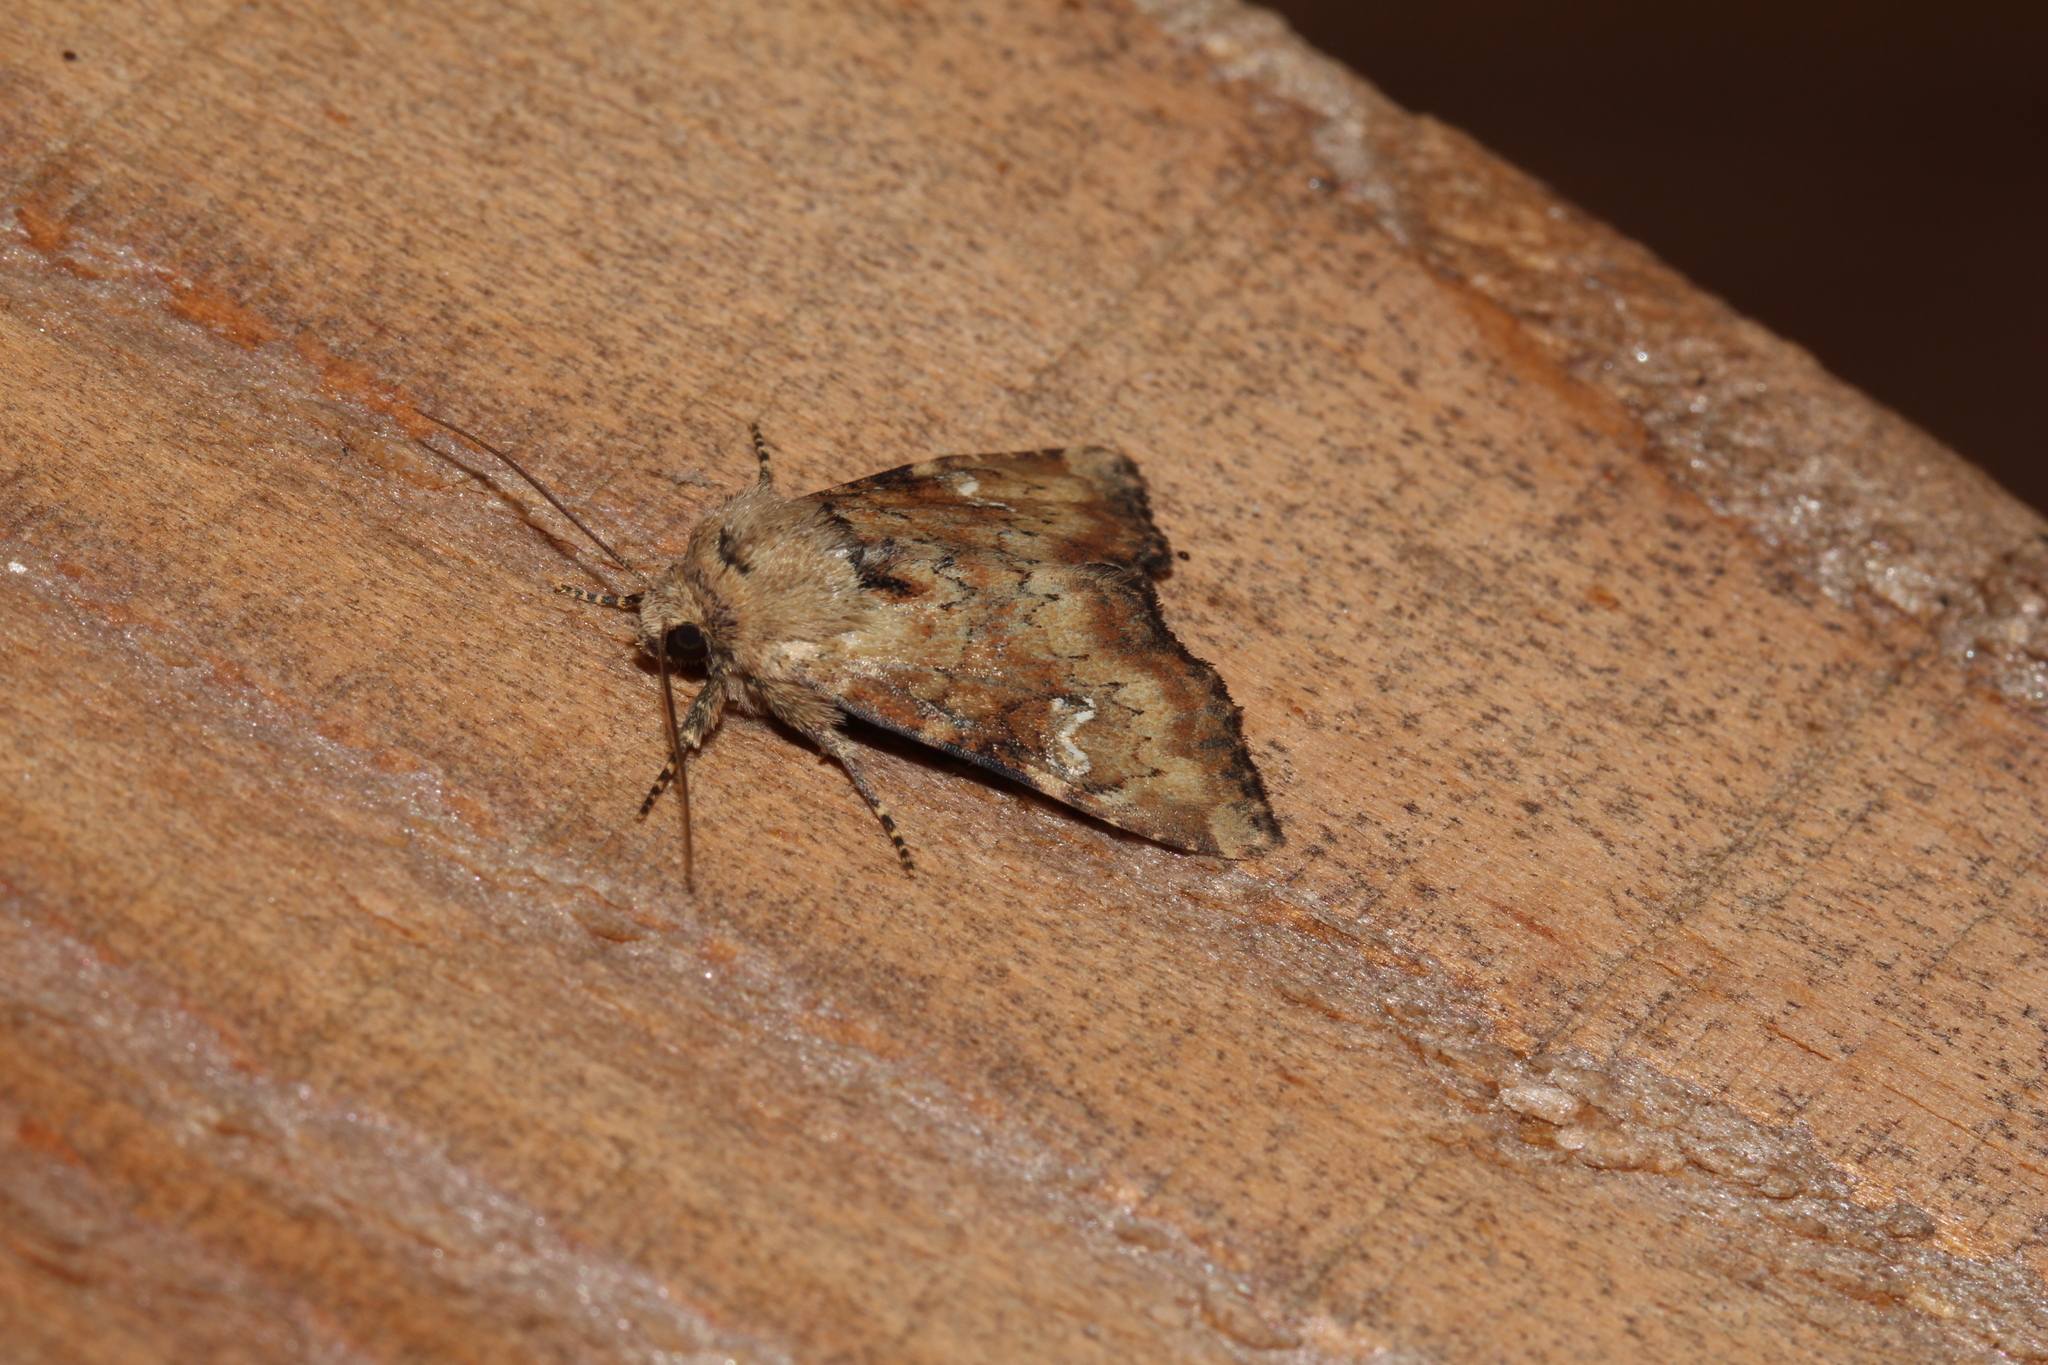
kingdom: Animalia
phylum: Arthropoda
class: Insecta
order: Lepidoptera
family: Noctuidae
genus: Loscopia
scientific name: Loscopia scolopacina
